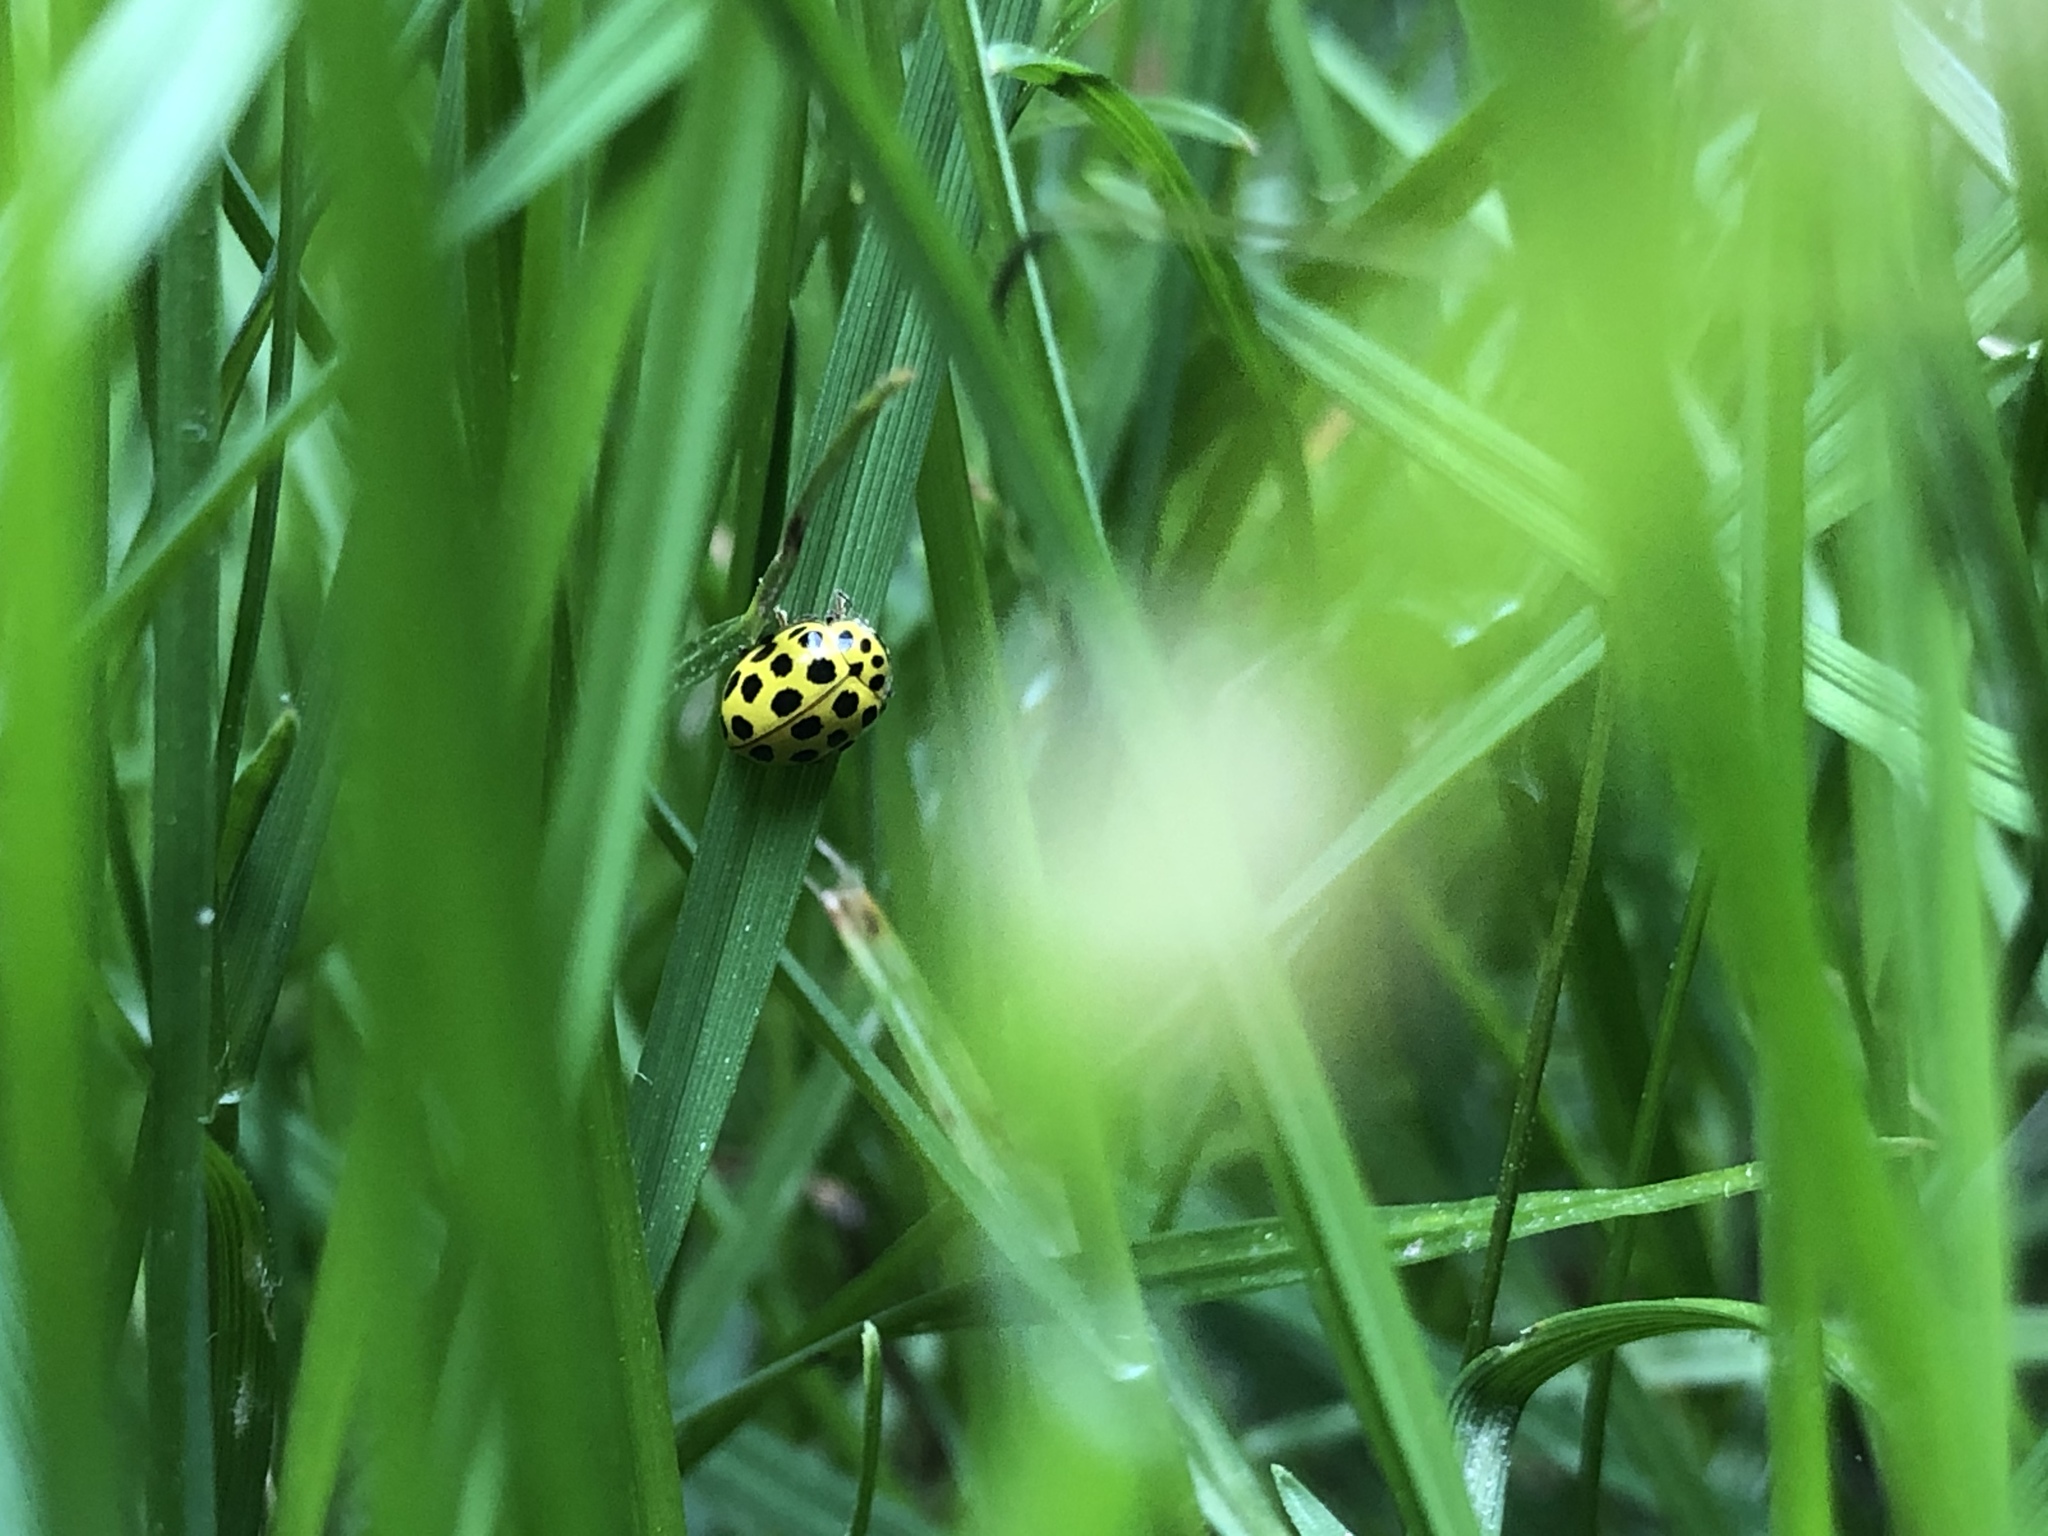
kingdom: Animalia
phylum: Arthropoda
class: Insecta
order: Coleoptera
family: Coccinellidae
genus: Psyllobora
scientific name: Psyllobora vigintiduopunctata
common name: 22-spot ladybird
